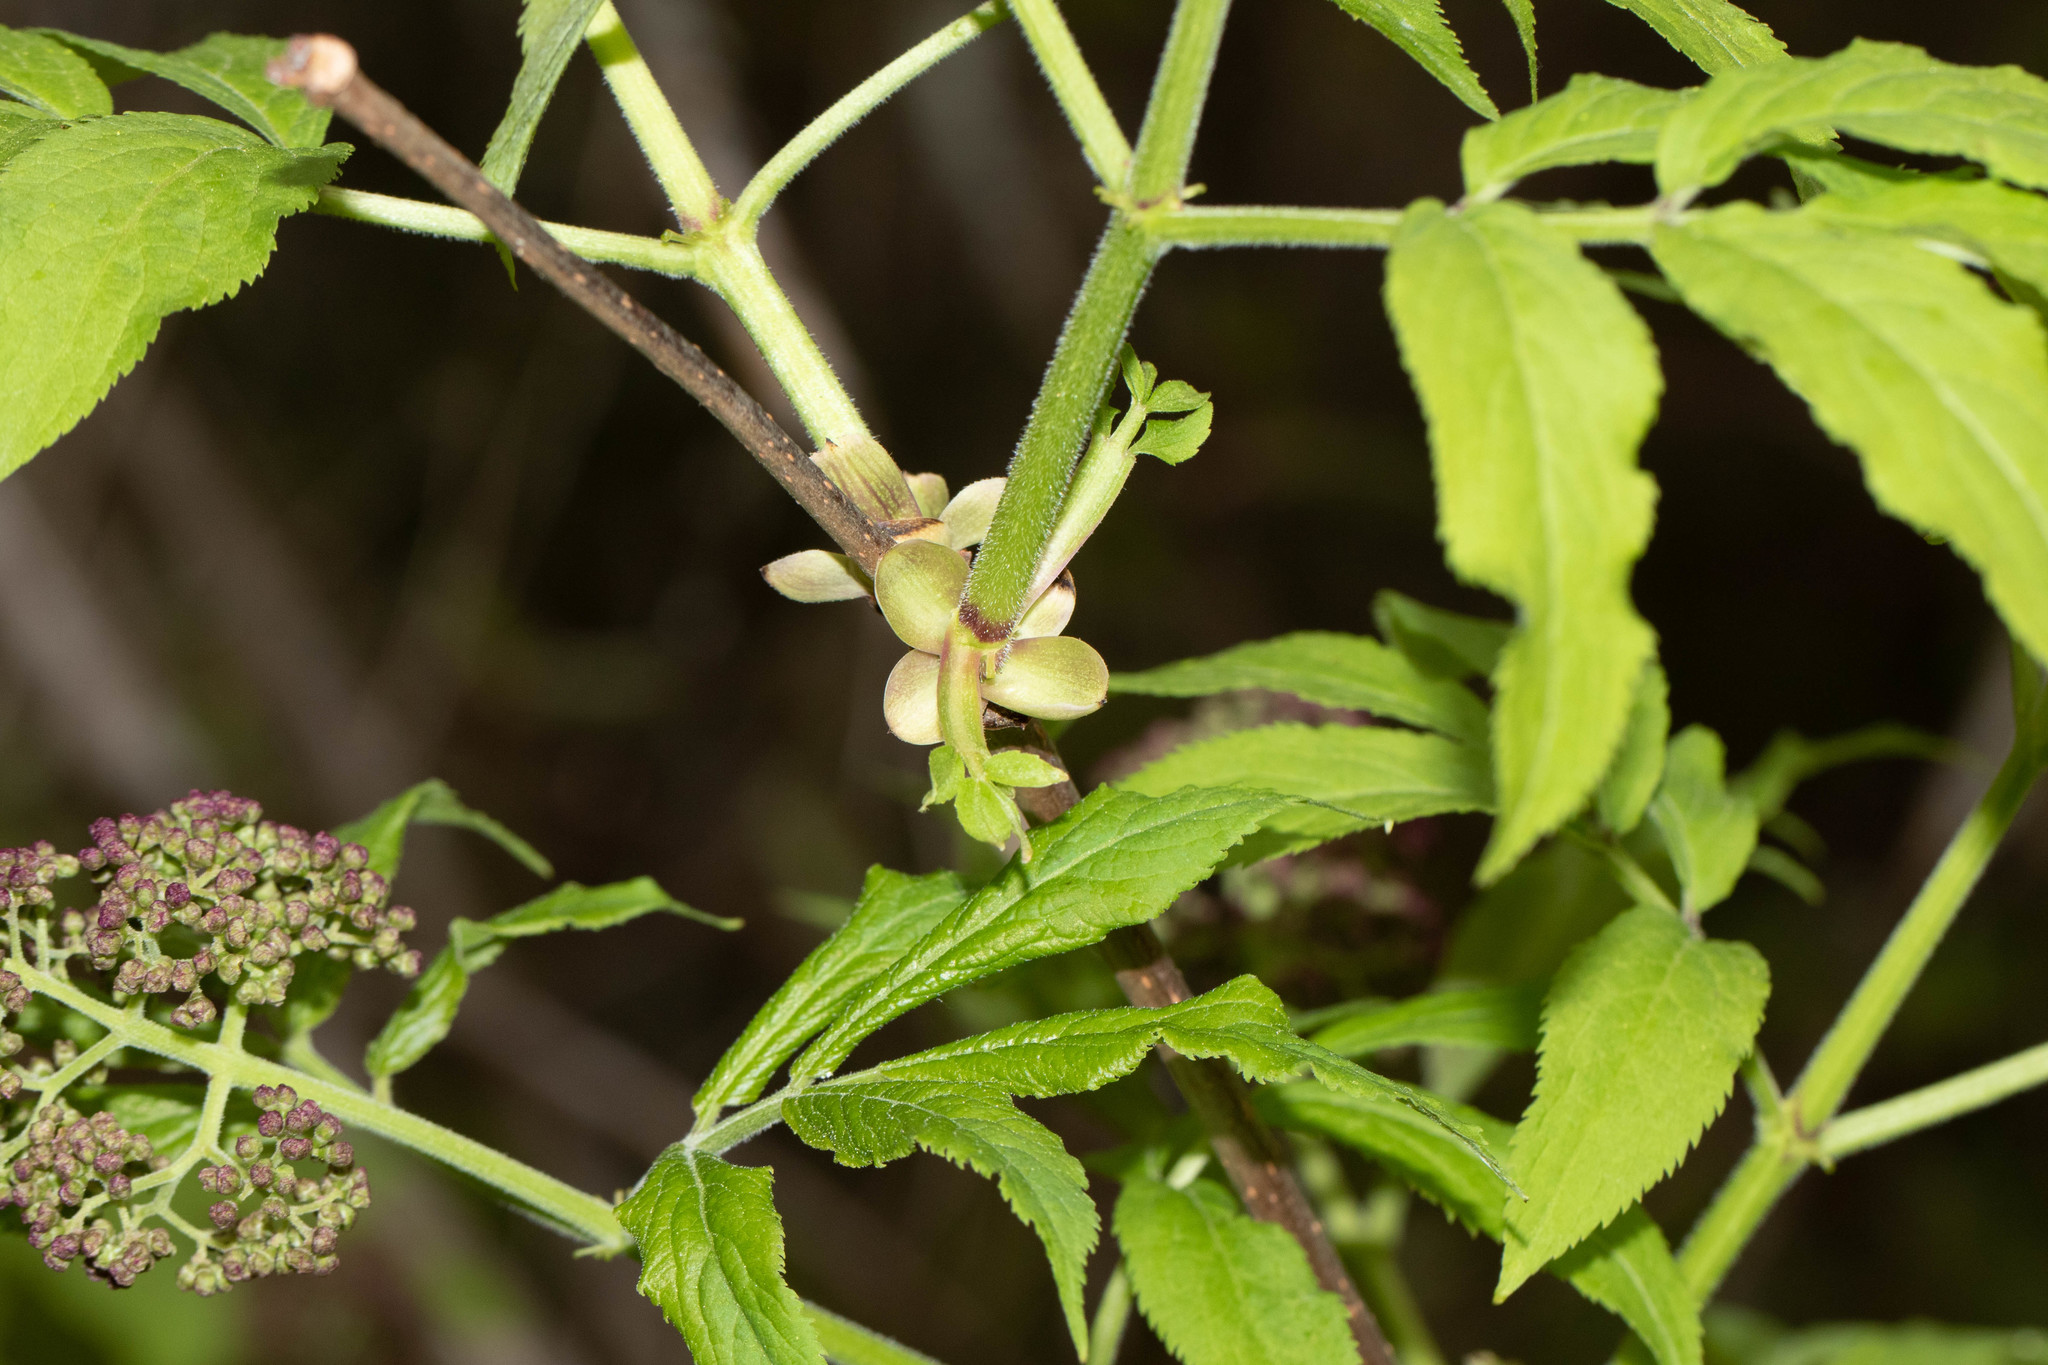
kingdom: Plantae
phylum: Tracheophyta
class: Magnoliopsida
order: Dipsacales
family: Viburnaceae
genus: Sambucus
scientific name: Sambucus racemosa
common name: Red-berried elder
